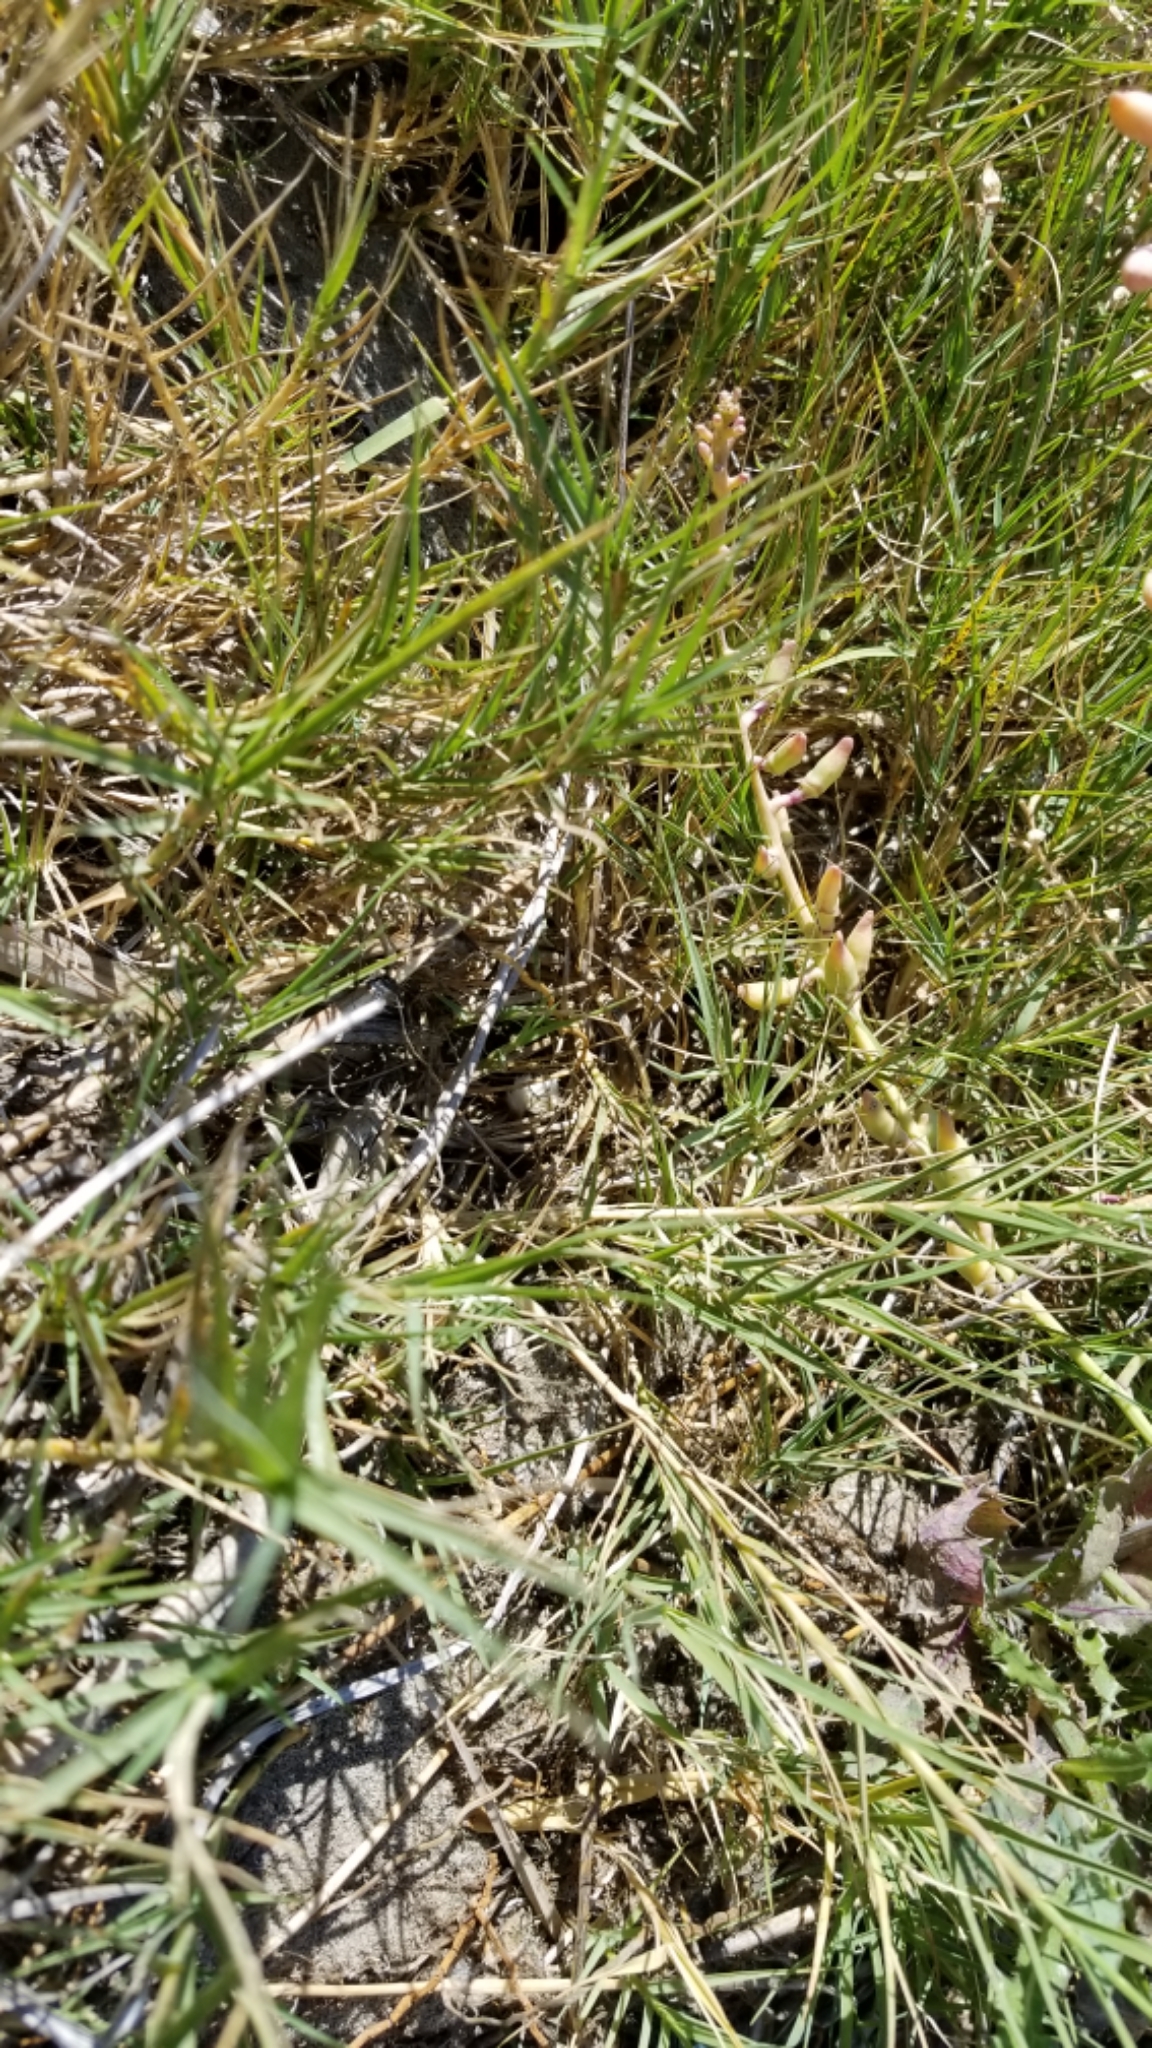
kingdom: Plantae
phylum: Tracheophyta
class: Liliopsida
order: Poales
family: Poaceae
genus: Distichlis
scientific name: Distichlis spicata
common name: Saltgrass
